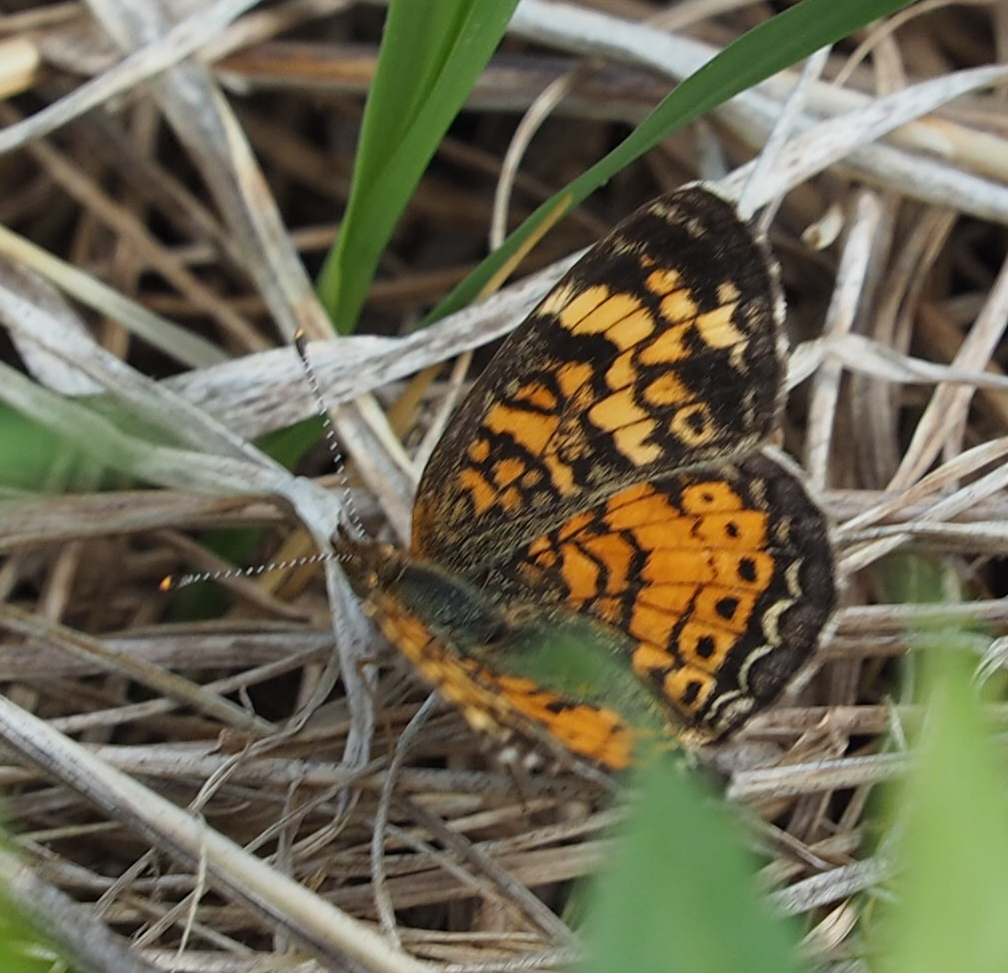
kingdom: Animalia
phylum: Arthropoda
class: Insecta
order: Lepidoptera
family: Nymphalidae
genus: Phyciodes
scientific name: Phyciodes tharos
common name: Pearl crescent
